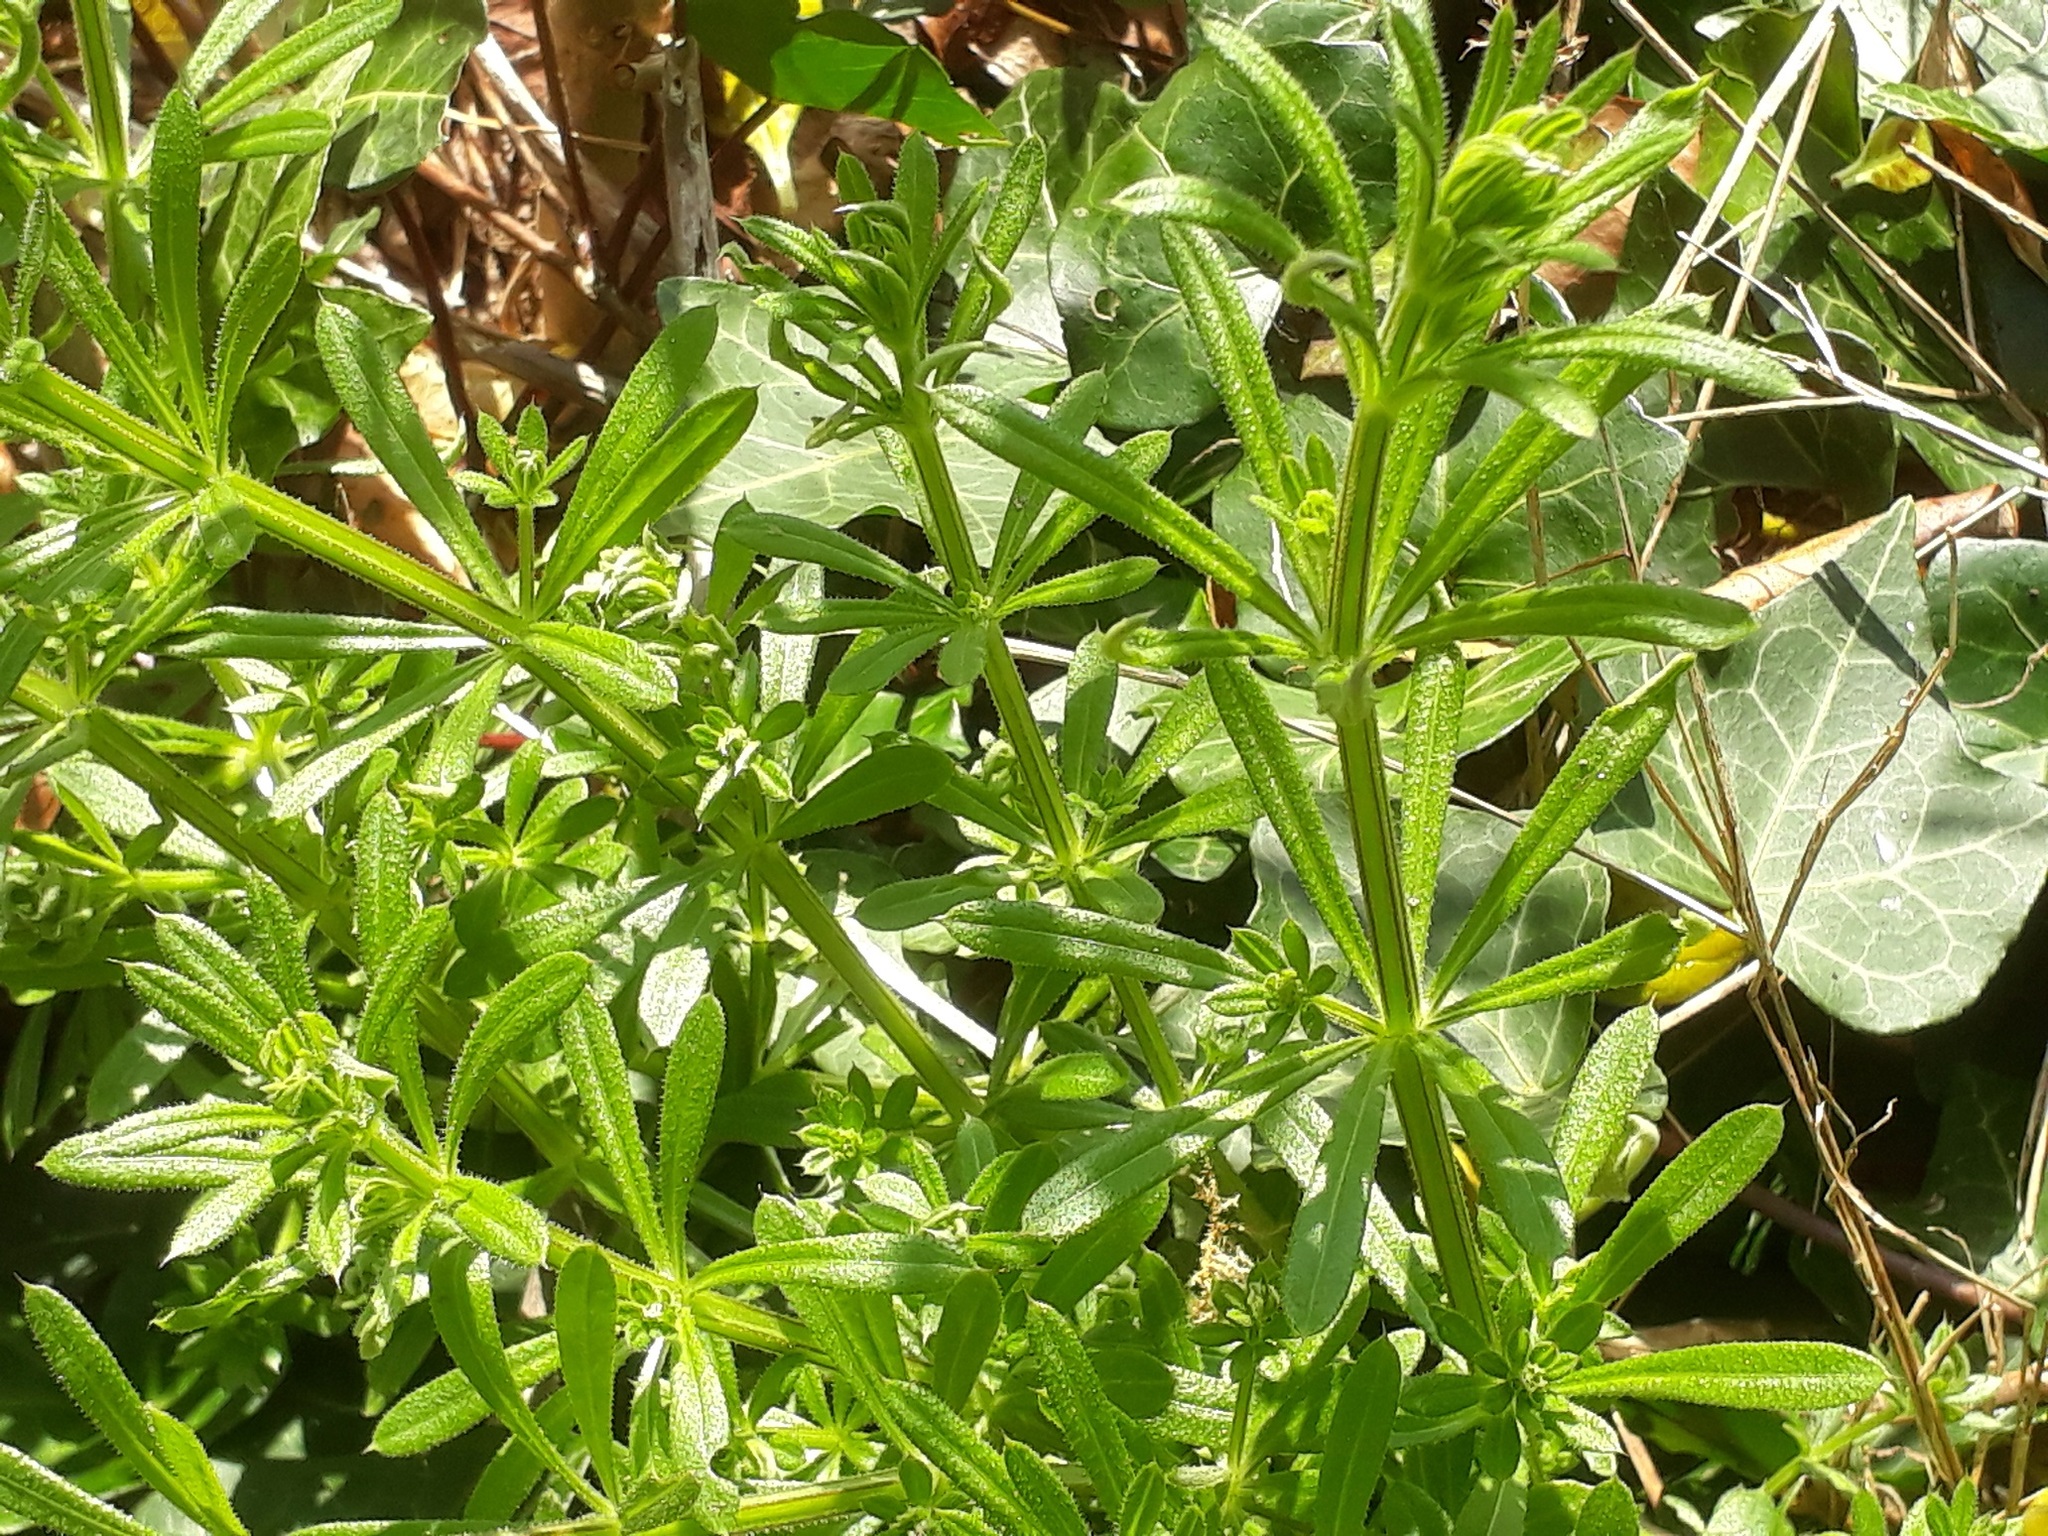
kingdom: Plantae
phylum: Tracheophyta
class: Magnoliopsida
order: Gentianales
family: Rubiaceae
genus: Galium
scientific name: Galium aparine
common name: Cleavers
